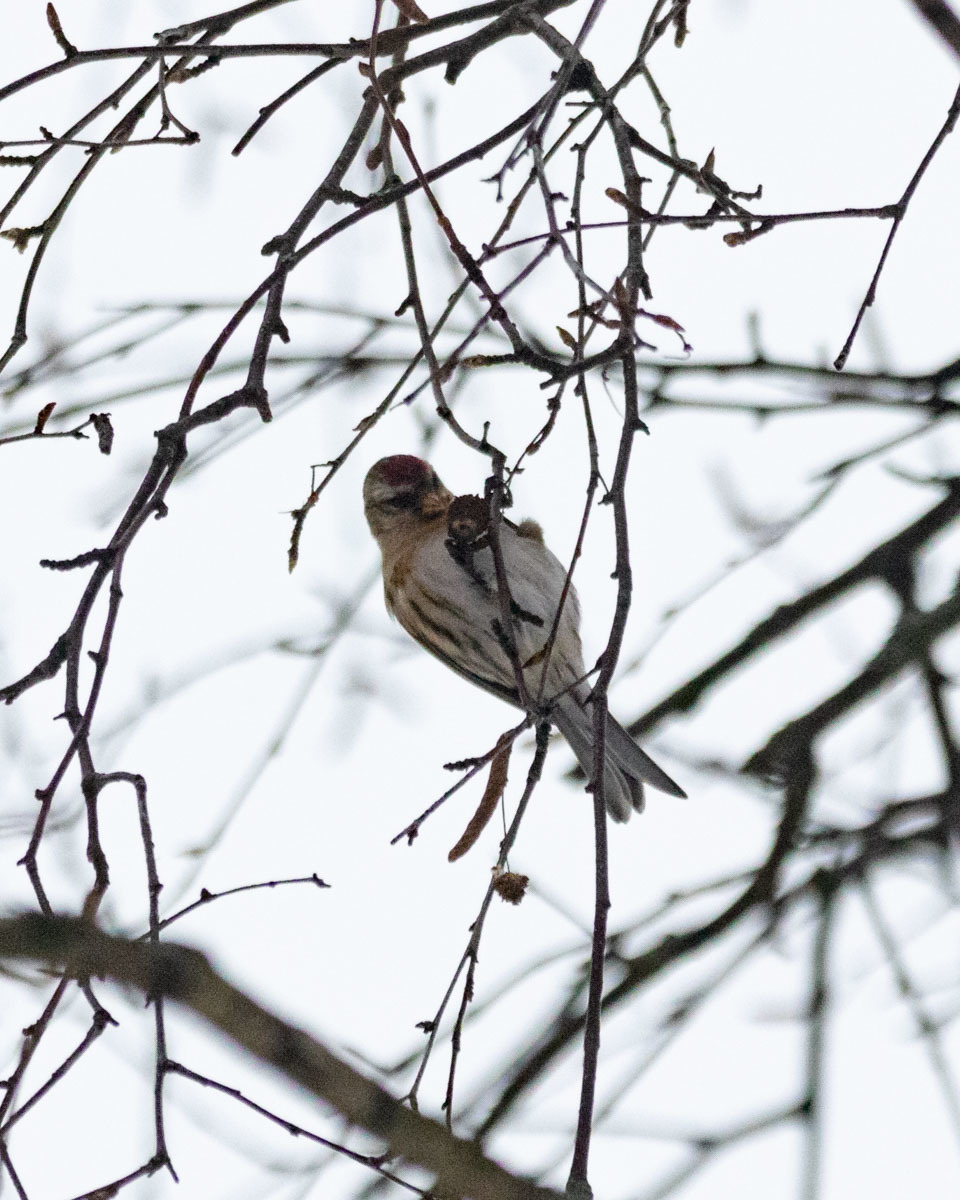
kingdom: Animalia
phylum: Chordata
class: Aves
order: Passeriformes
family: Fringillidae
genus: Acanthis
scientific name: Acanthis flammea
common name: Common redpoll
